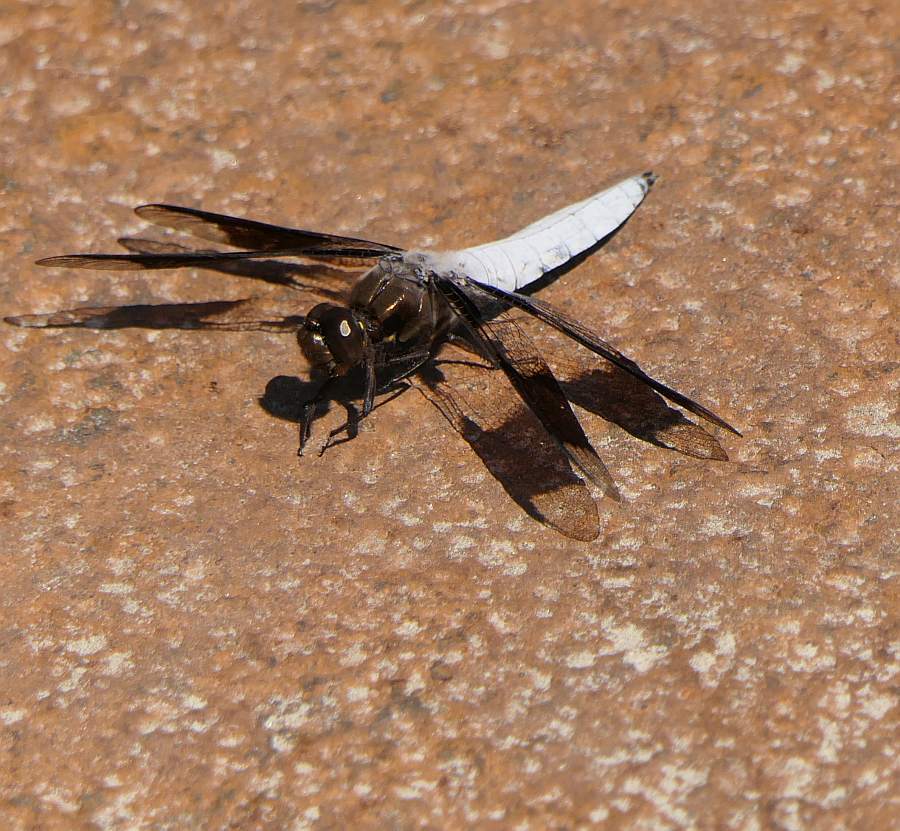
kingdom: Animalia
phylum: Arthropoda
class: Insecta
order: Odonata
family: Libellulidae
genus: Plathemis
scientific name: Plathemis lydia
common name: Common whitetail
